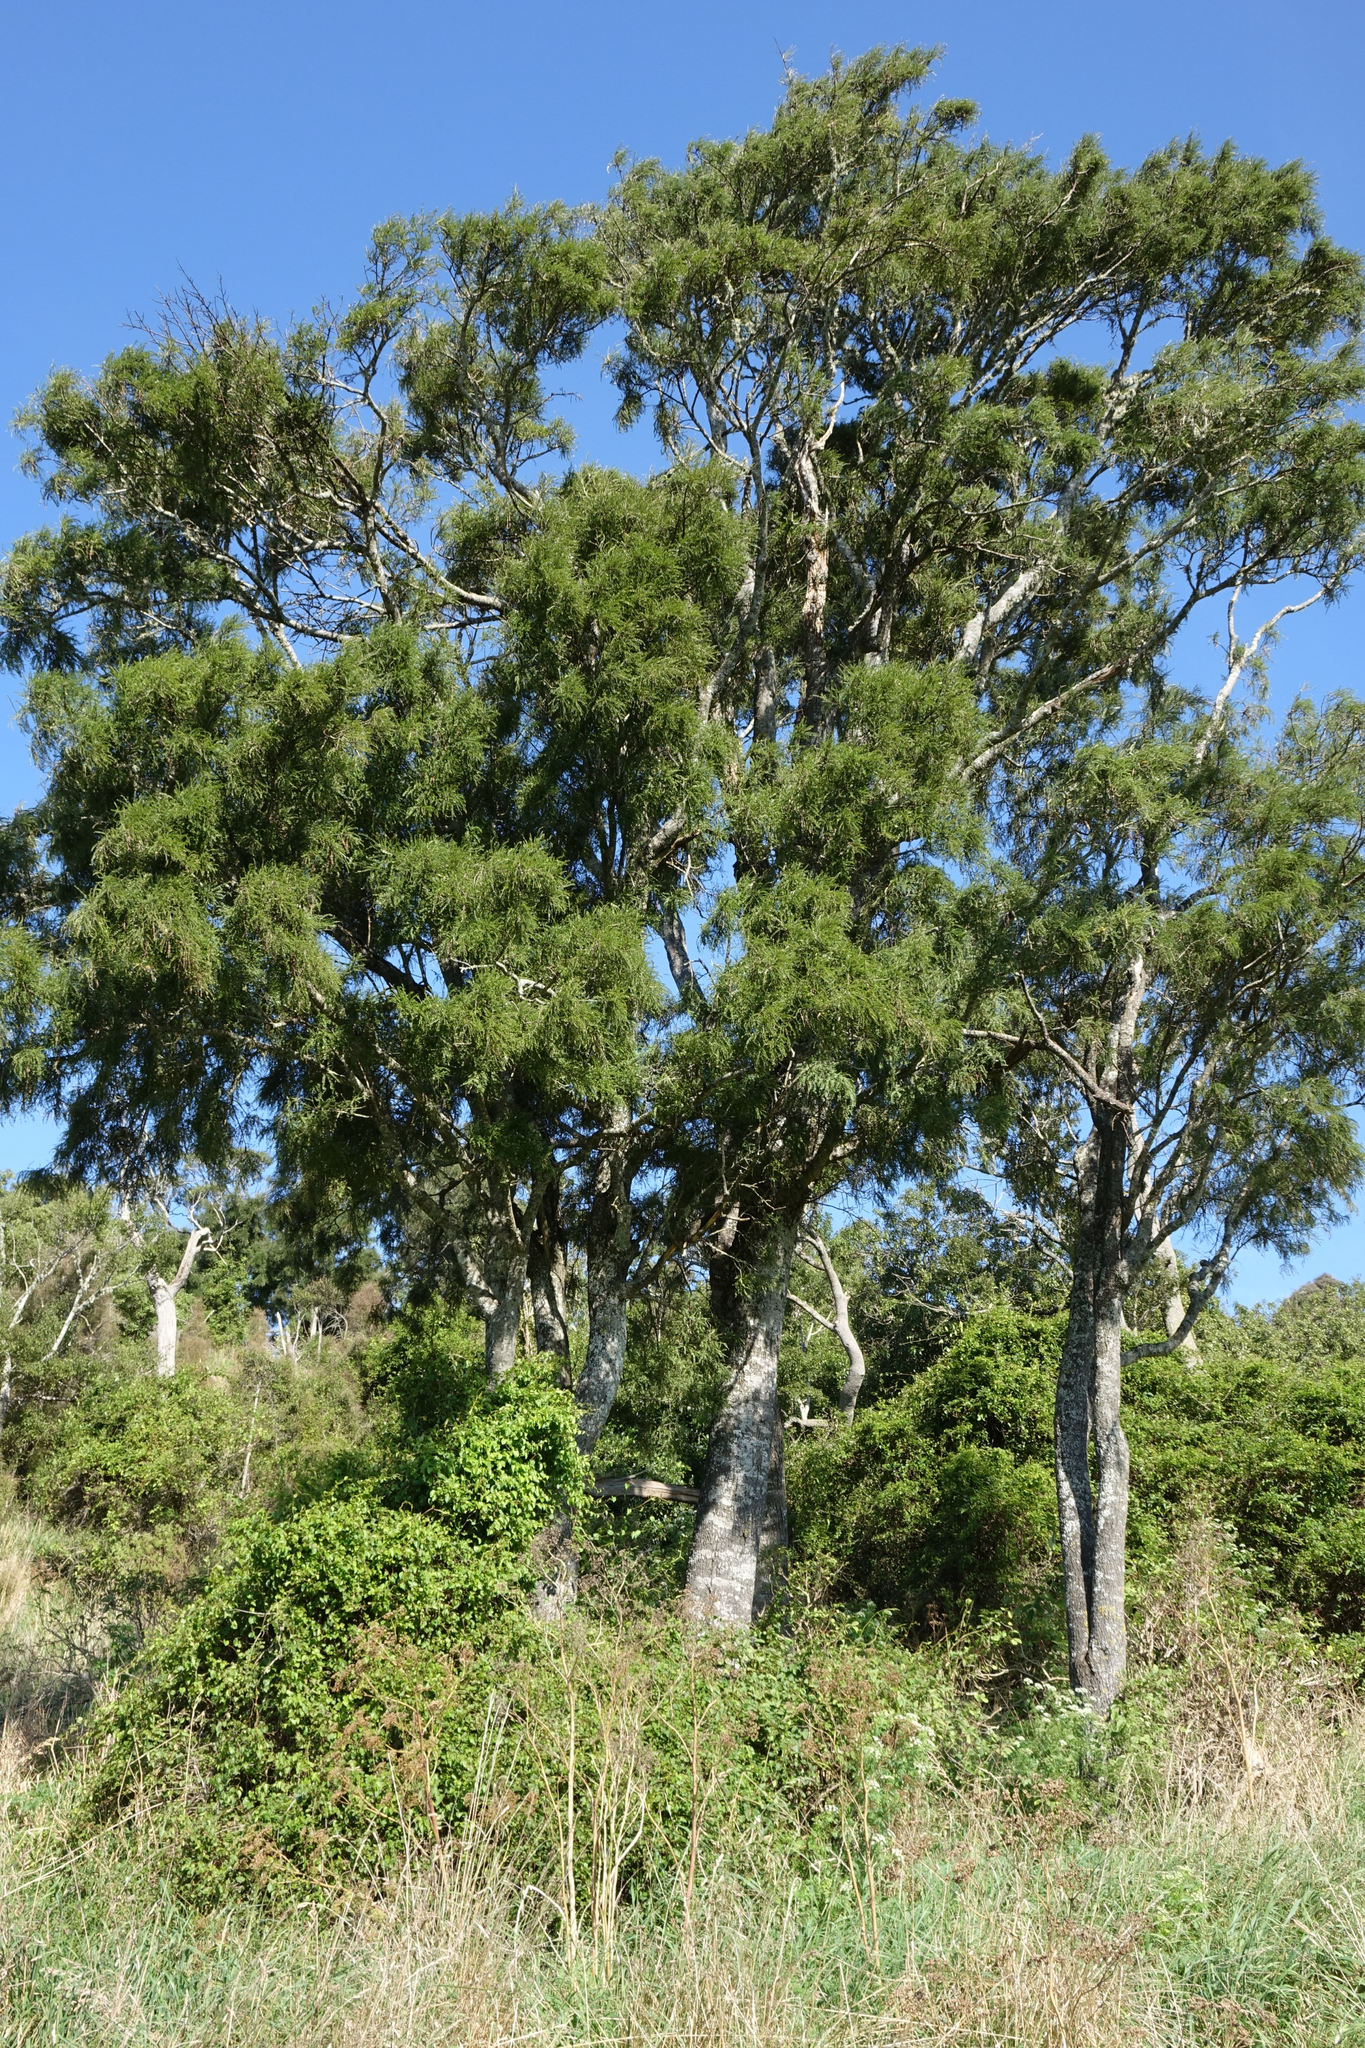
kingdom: Plantae
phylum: Tracheophyta
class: Magnoliopsida
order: Fabales
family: Fabaceae
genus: Sophora
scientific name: Sophora microphylla
